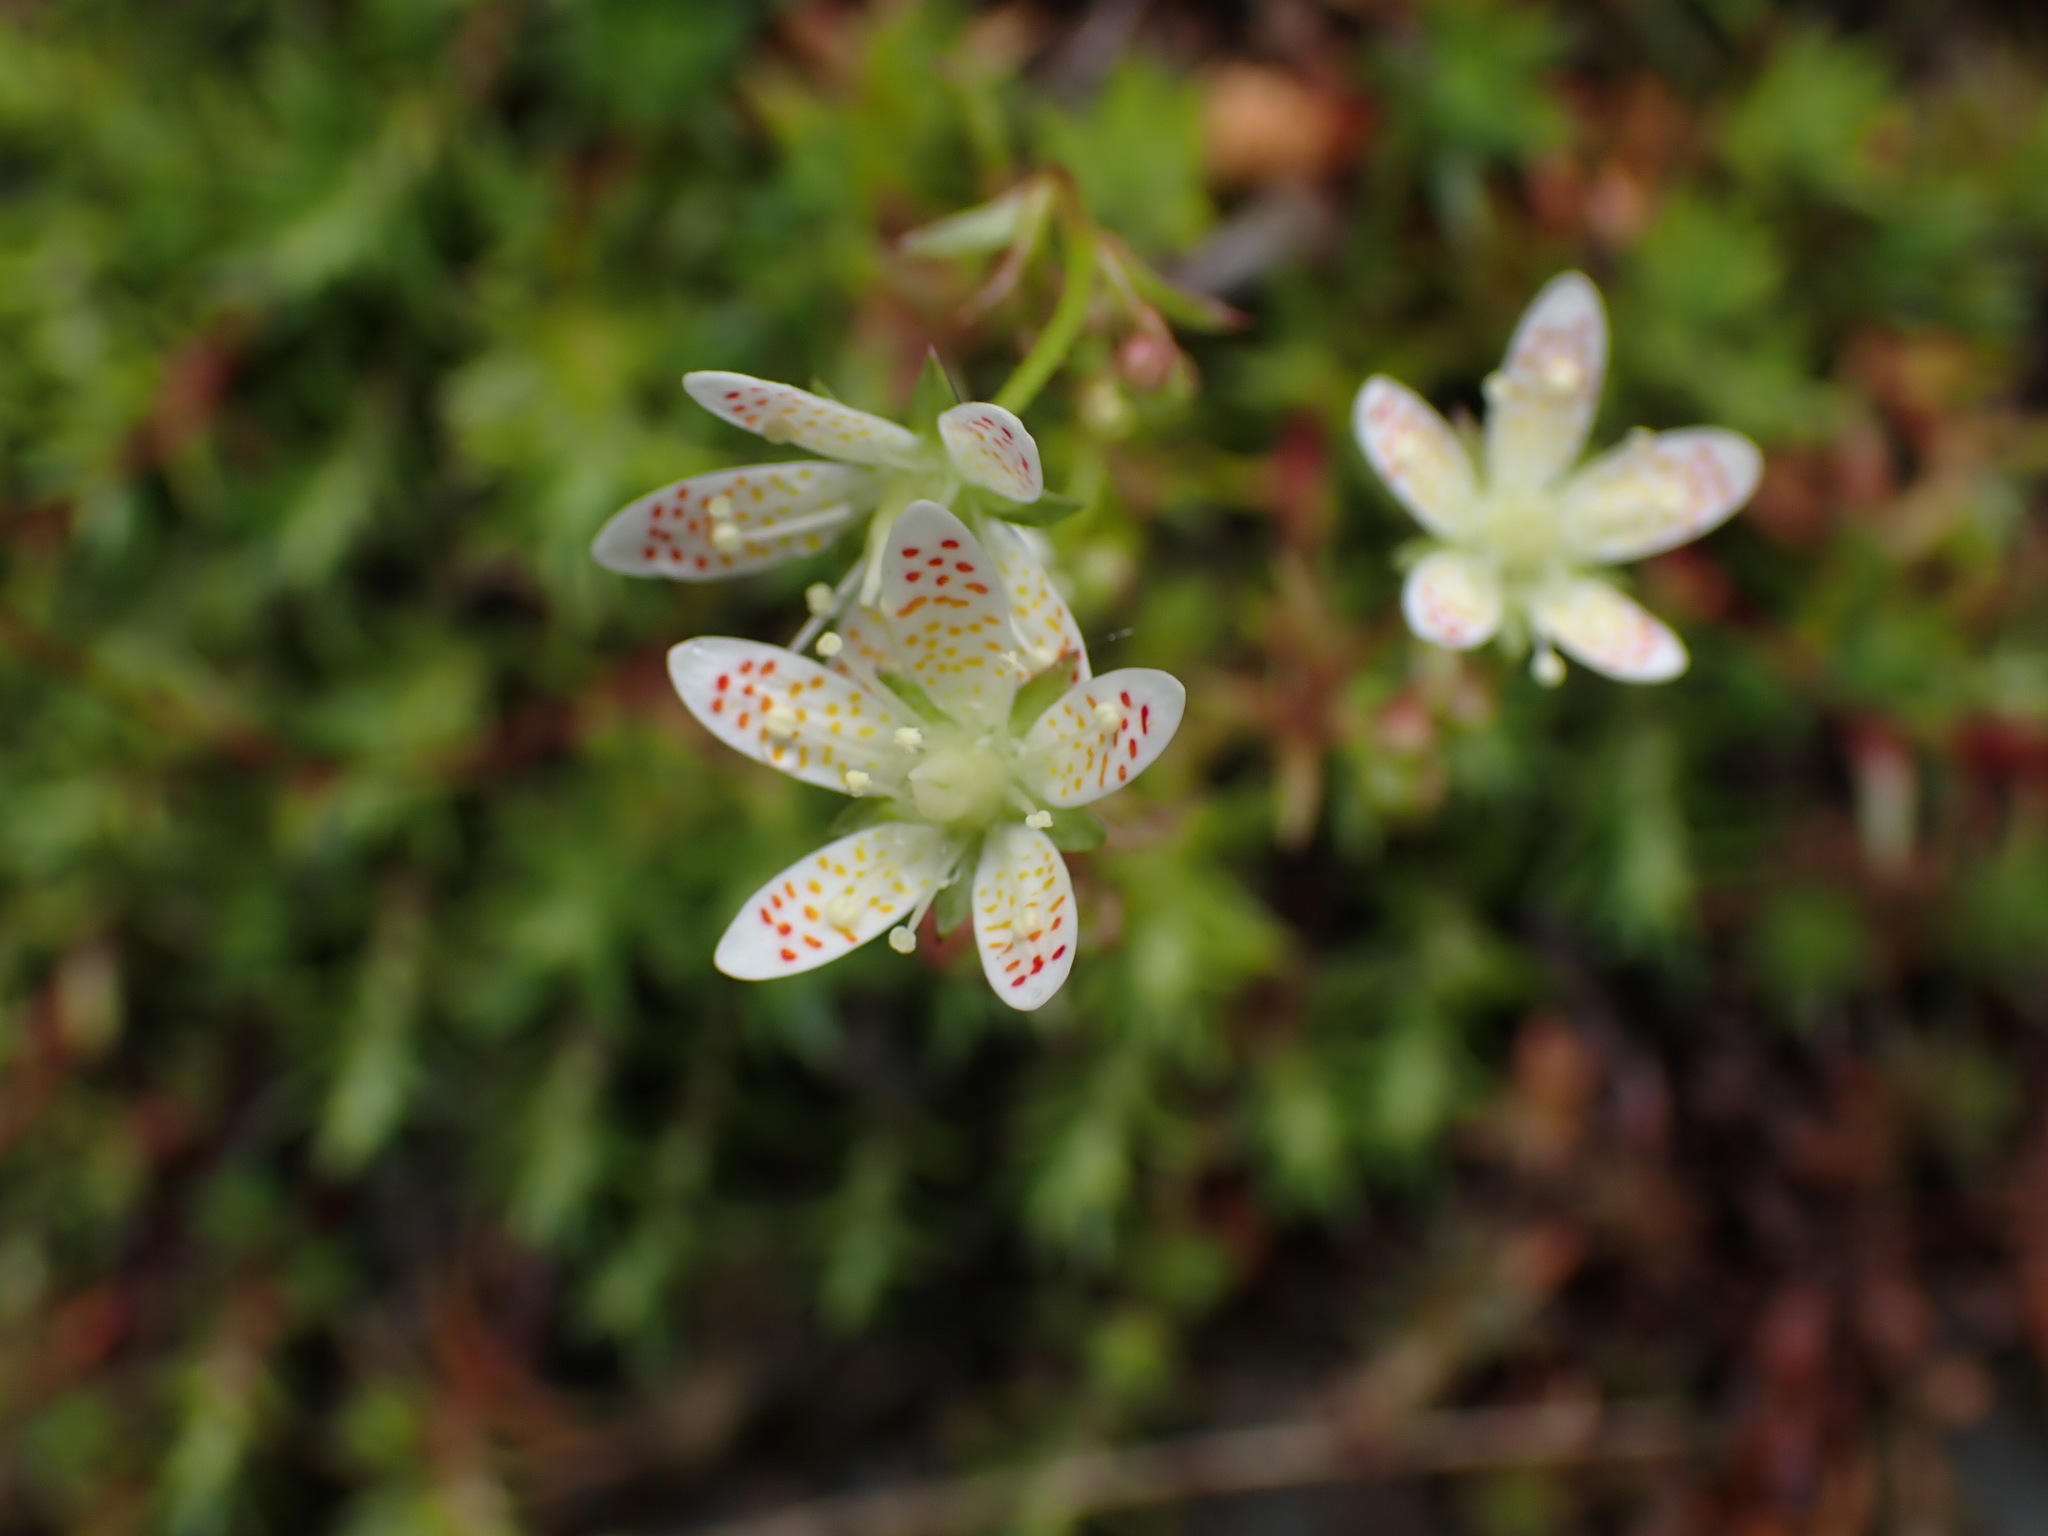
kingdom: Plantae
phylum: Tracheophyta
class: Magnoliopsida
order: Saxifragales
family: Saxifragaceae
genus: Saxifraga
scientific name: Saxifraga bronchialis
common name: Matted saxifrage
